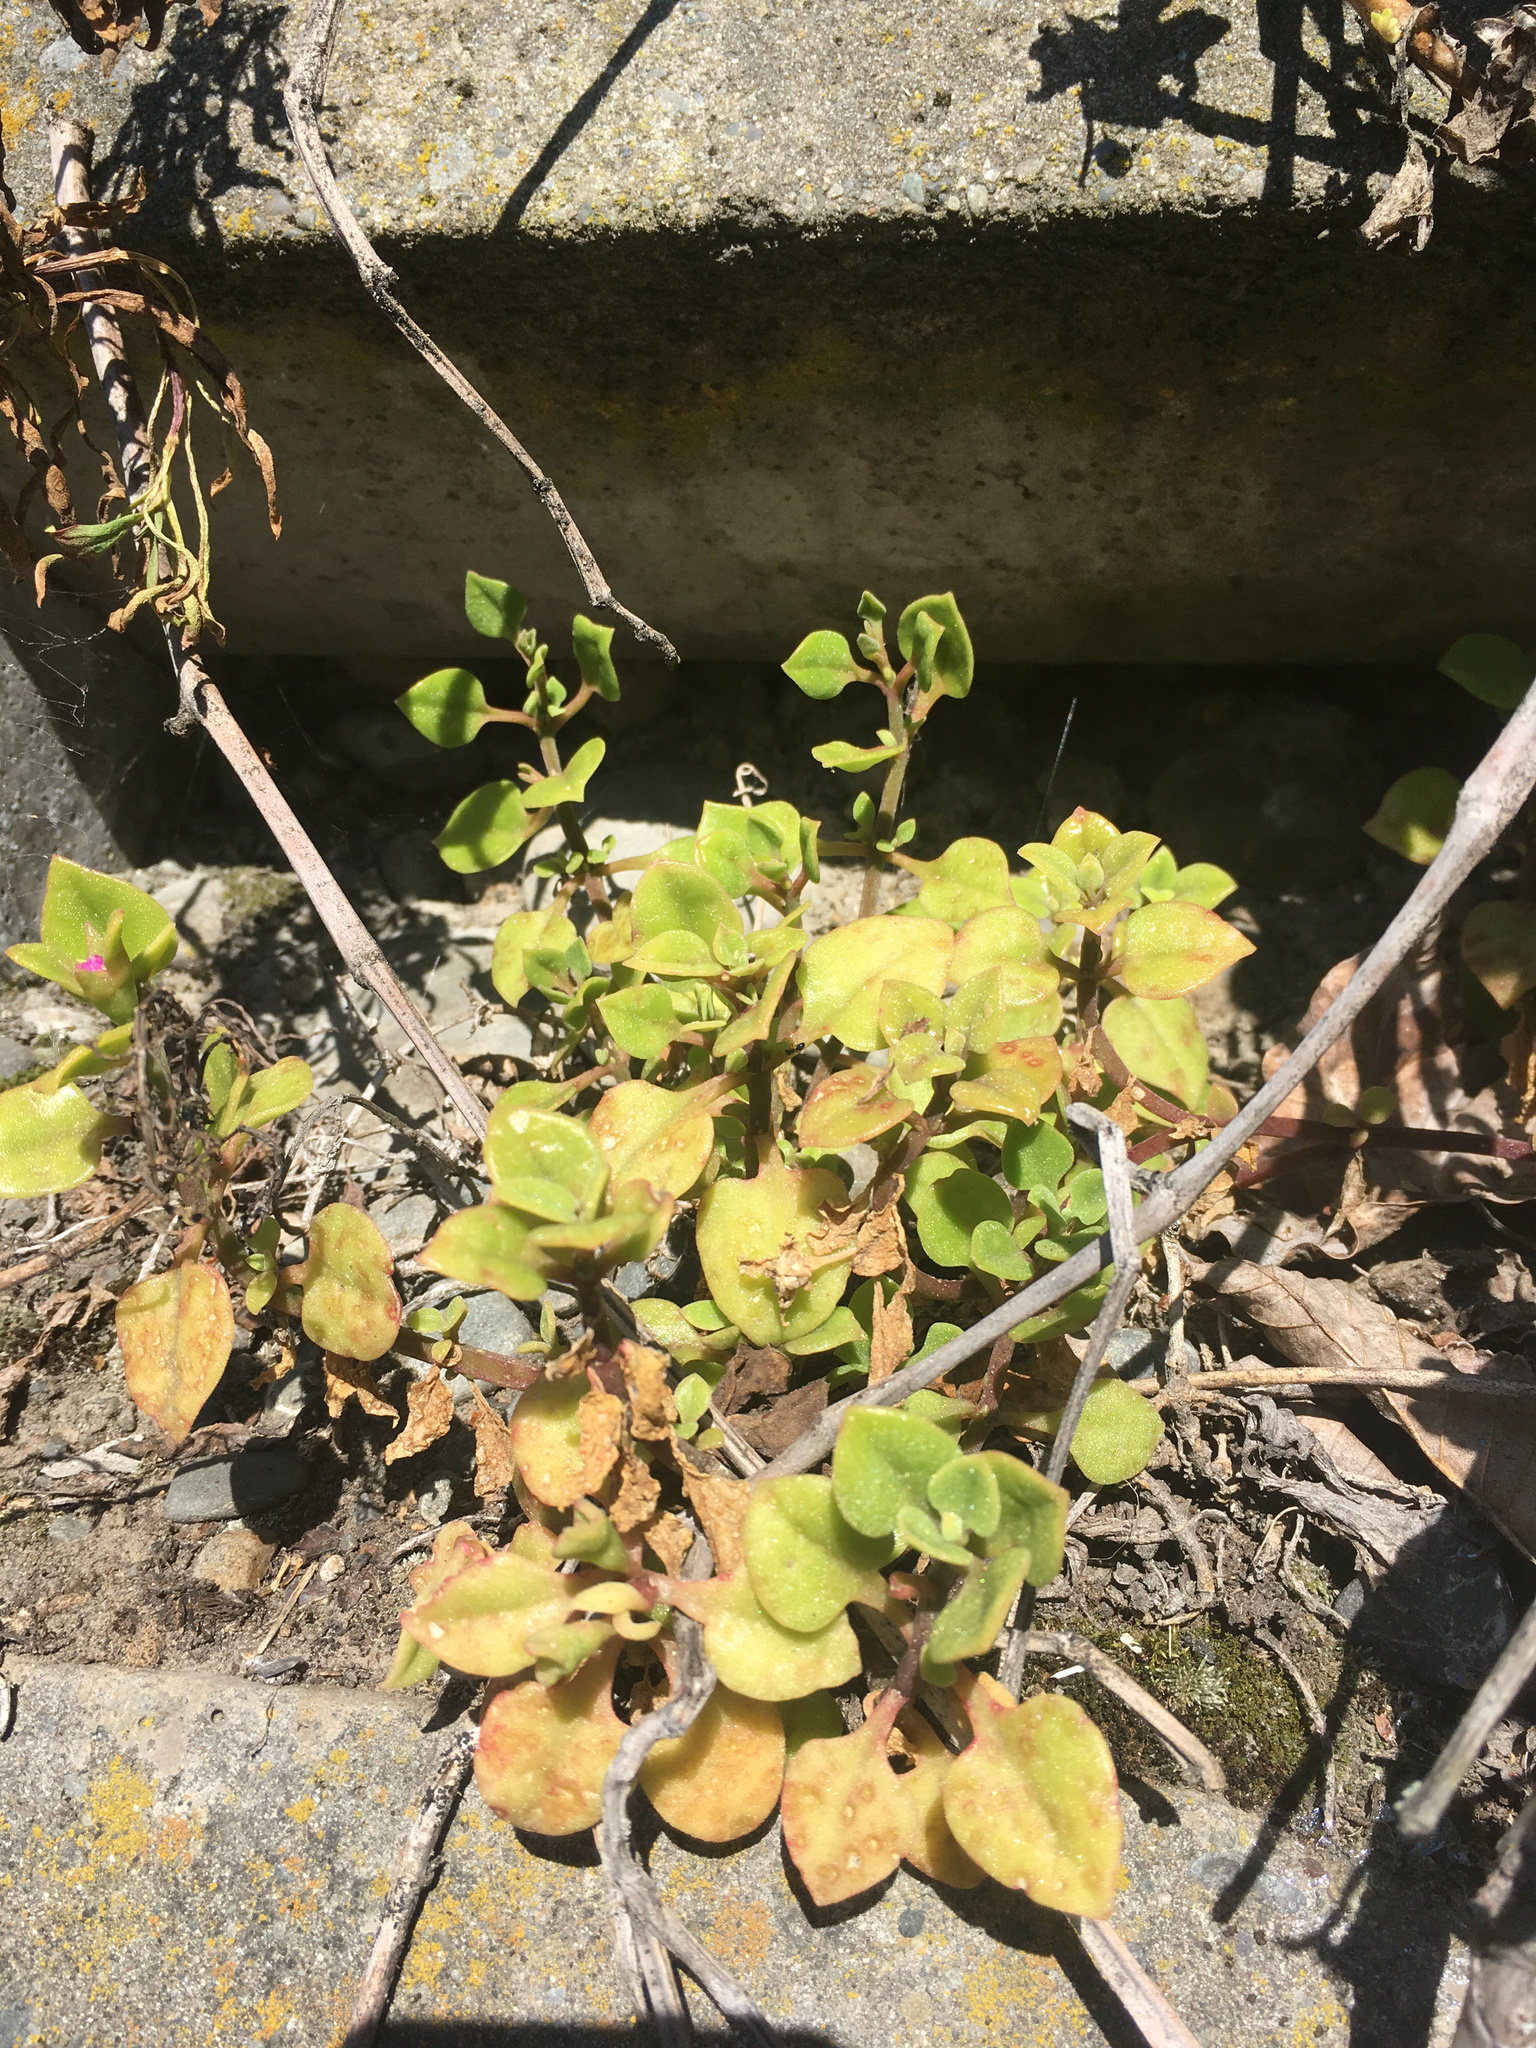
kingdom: Plantae
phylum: Tracheophyta
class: Magnoliopsida
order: Caryophyllales
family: Aizoaceae
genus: Mesembryanthemum
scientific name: Mesembryanthemum cordifolium
